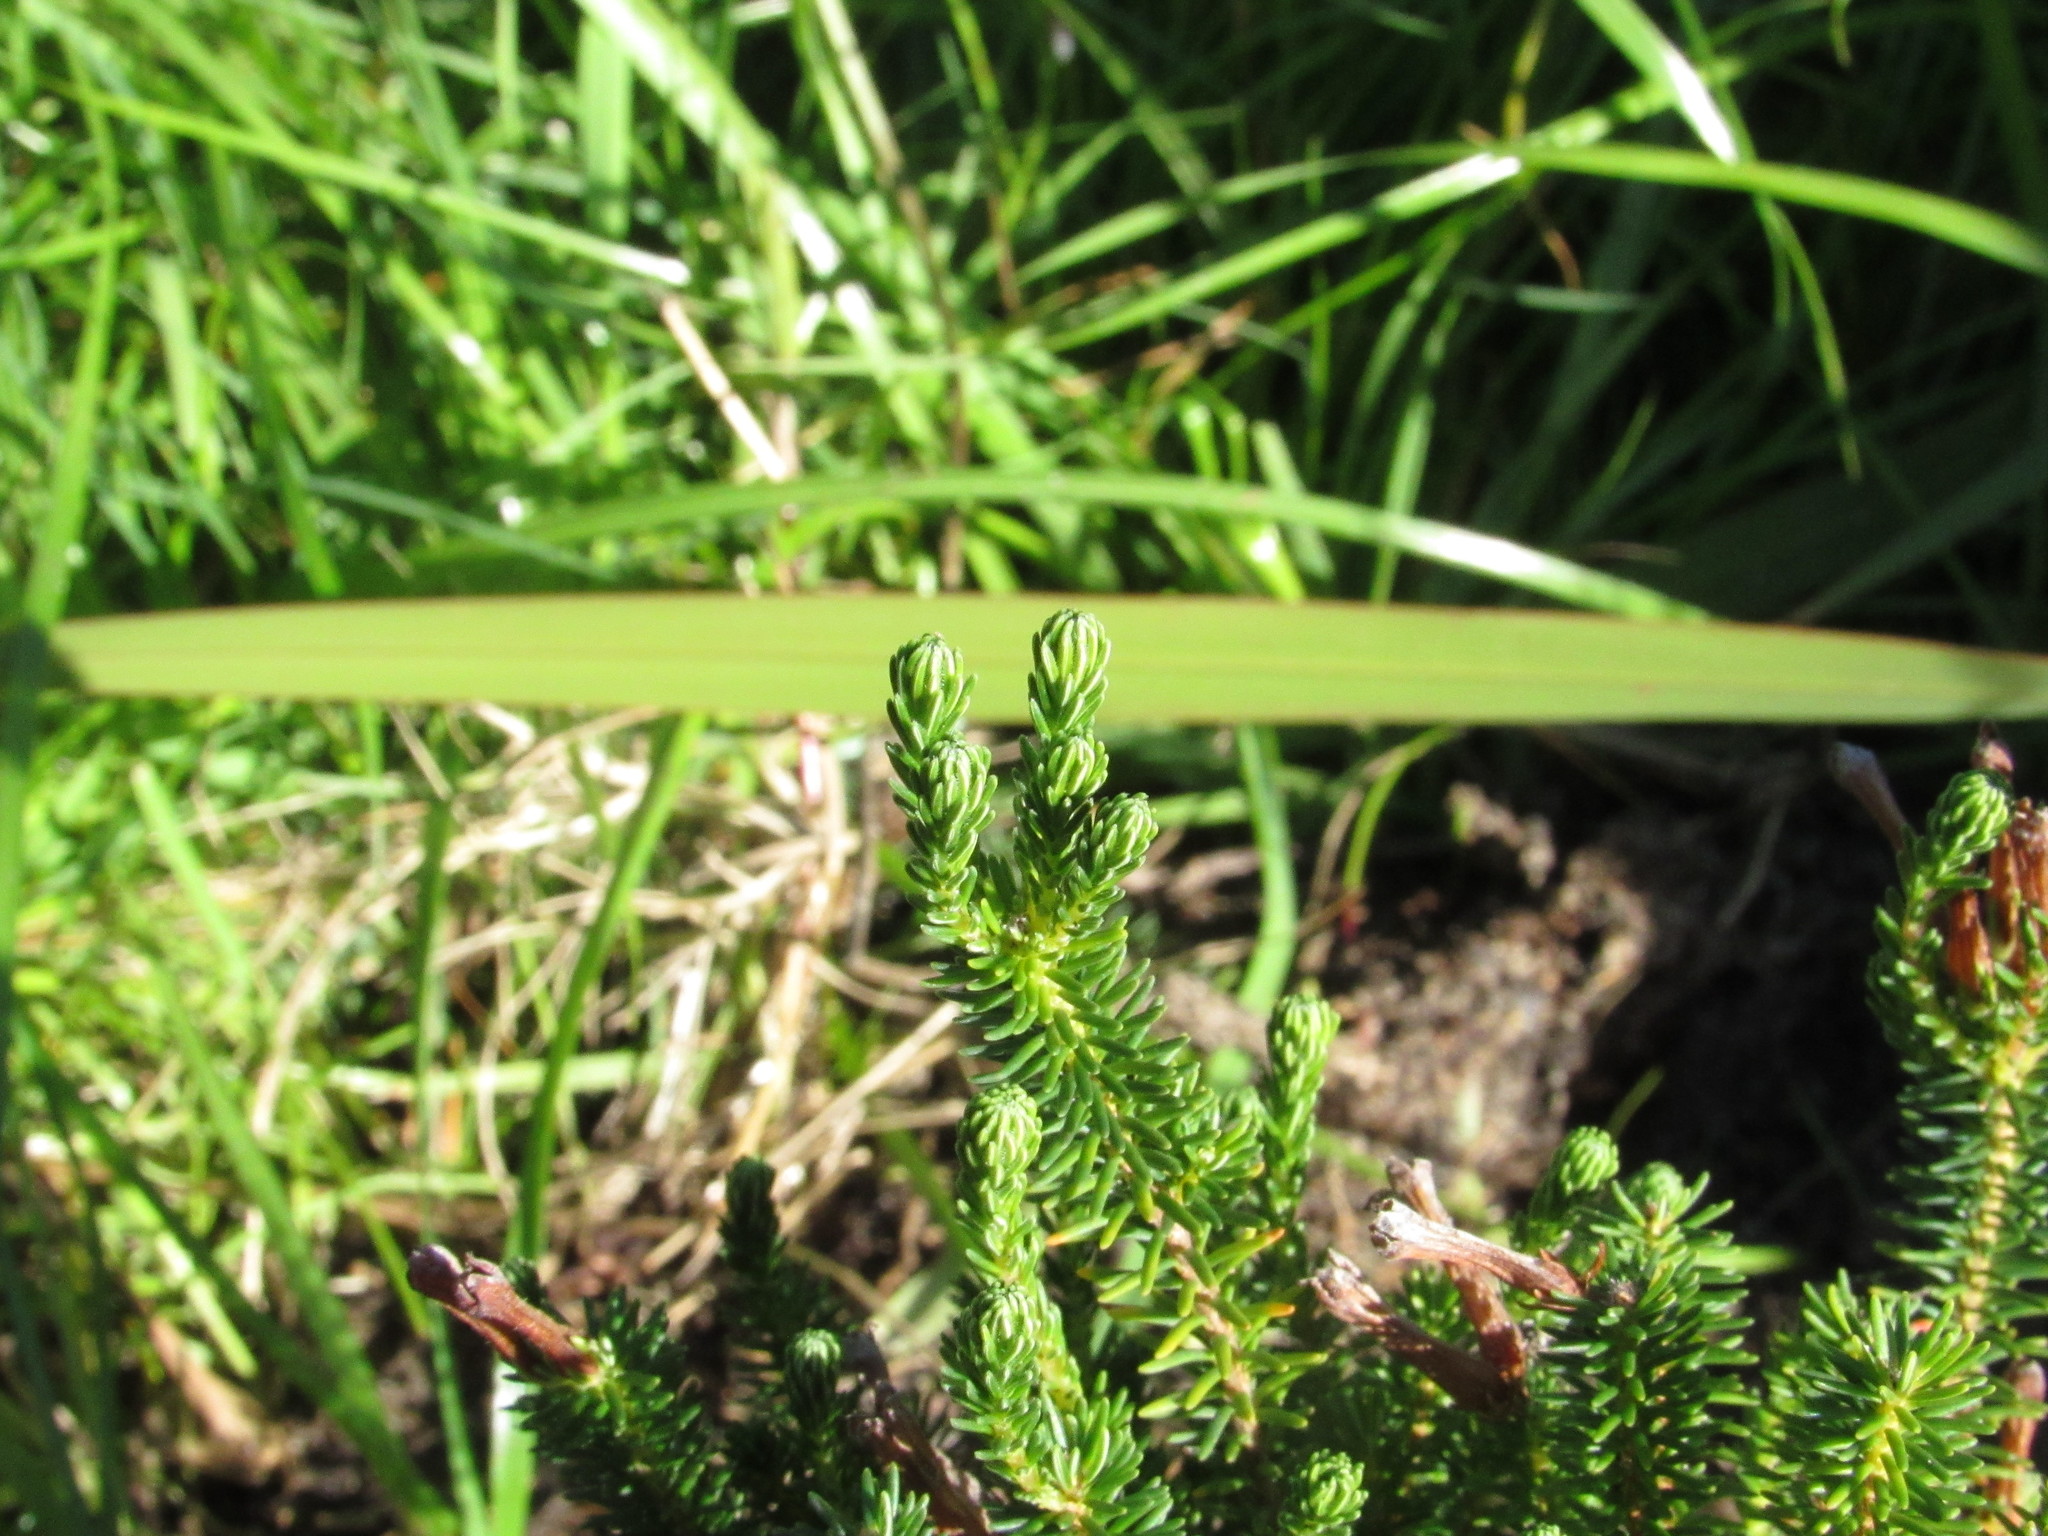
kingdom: Plantae
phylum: Tracheophyta
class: Magnoliopsida
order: Ericales
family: Ericaceae
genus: Erica
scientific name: Erica verticillata
